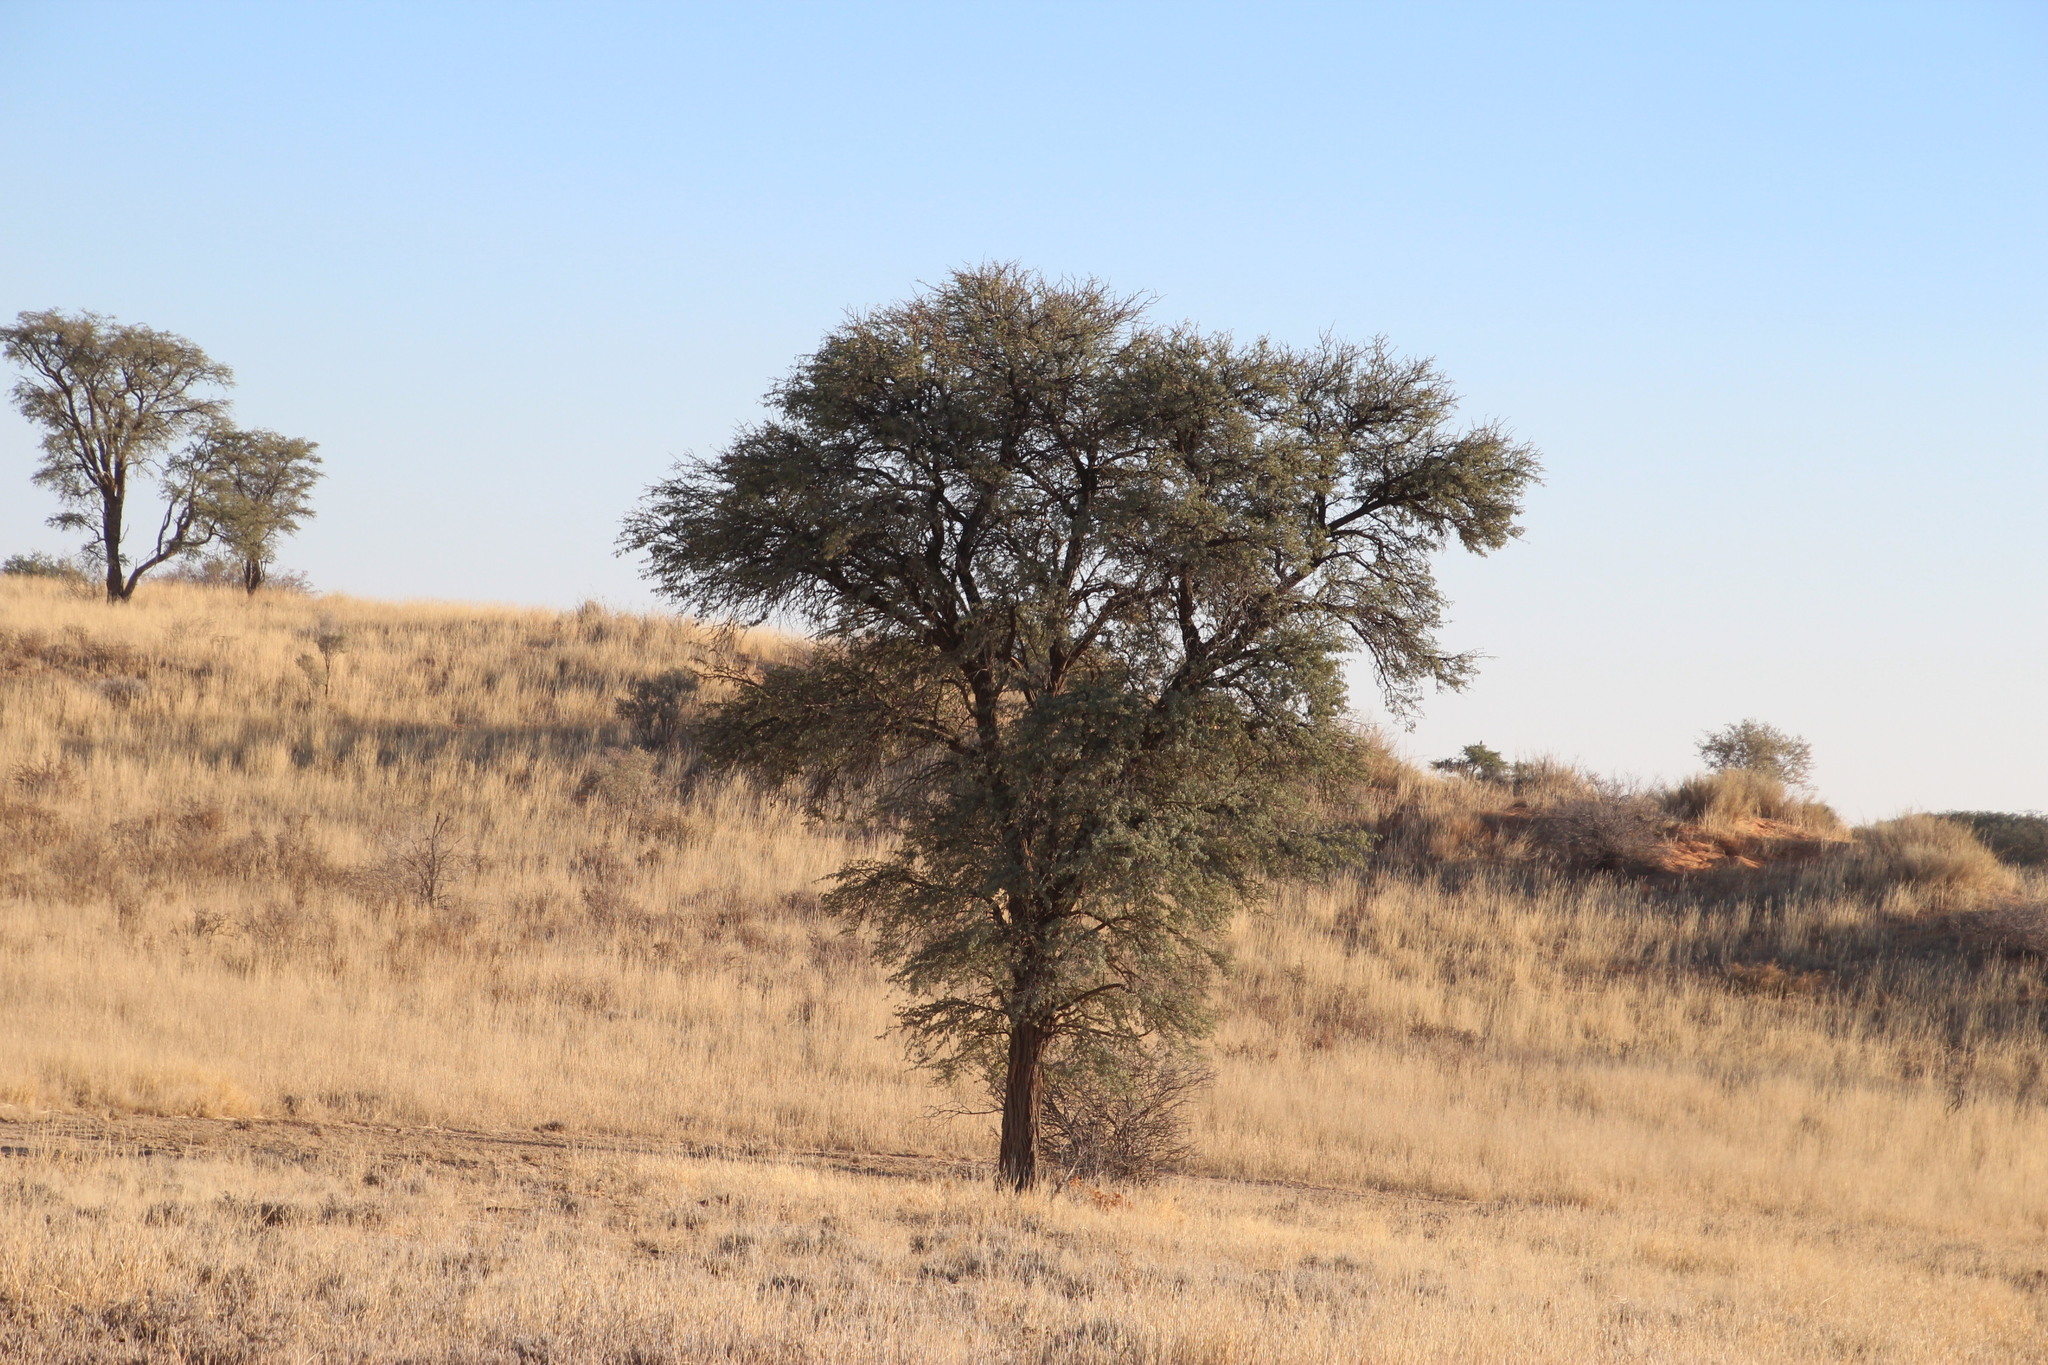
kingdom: Plantae
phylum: Tracheophyta
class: Magnoliopsida
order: Fabales
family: Fabaceae
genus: Vachellia
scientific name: Vachellia haematoxylon
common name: Grey camel thorn
